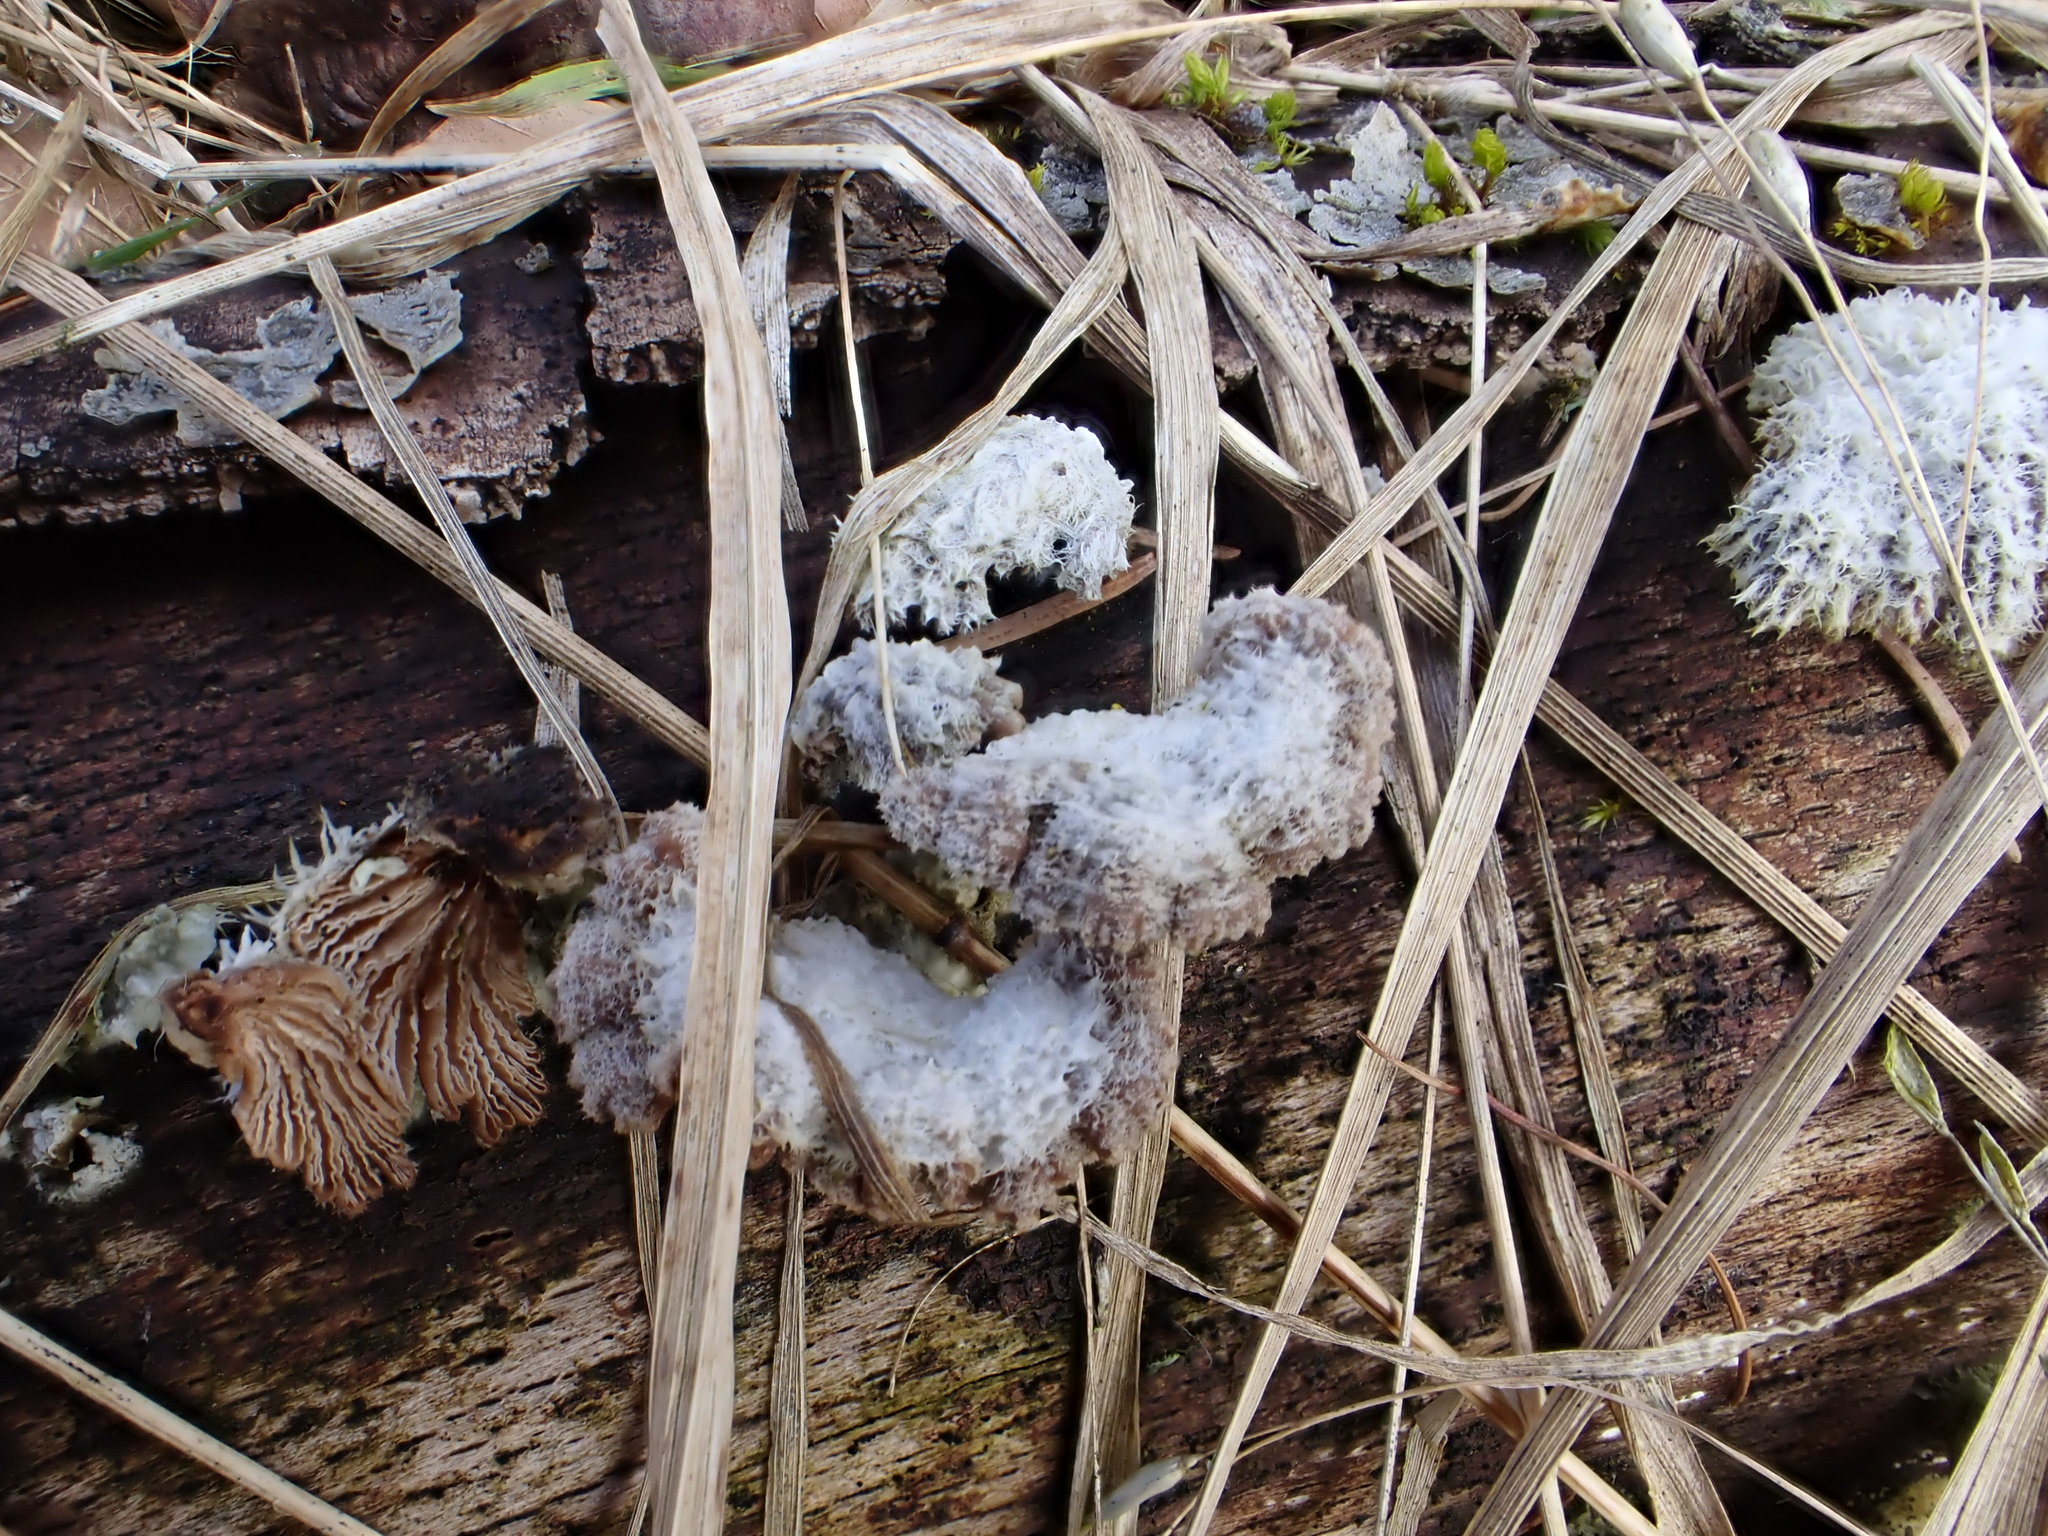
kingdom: Fungi
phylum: Basidiomycota
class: Agaricomycetes
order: Agaricales
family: Schizophyllaceae
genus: Schizophyllum
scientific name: Schizophyllum commune
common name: Common porecrust
